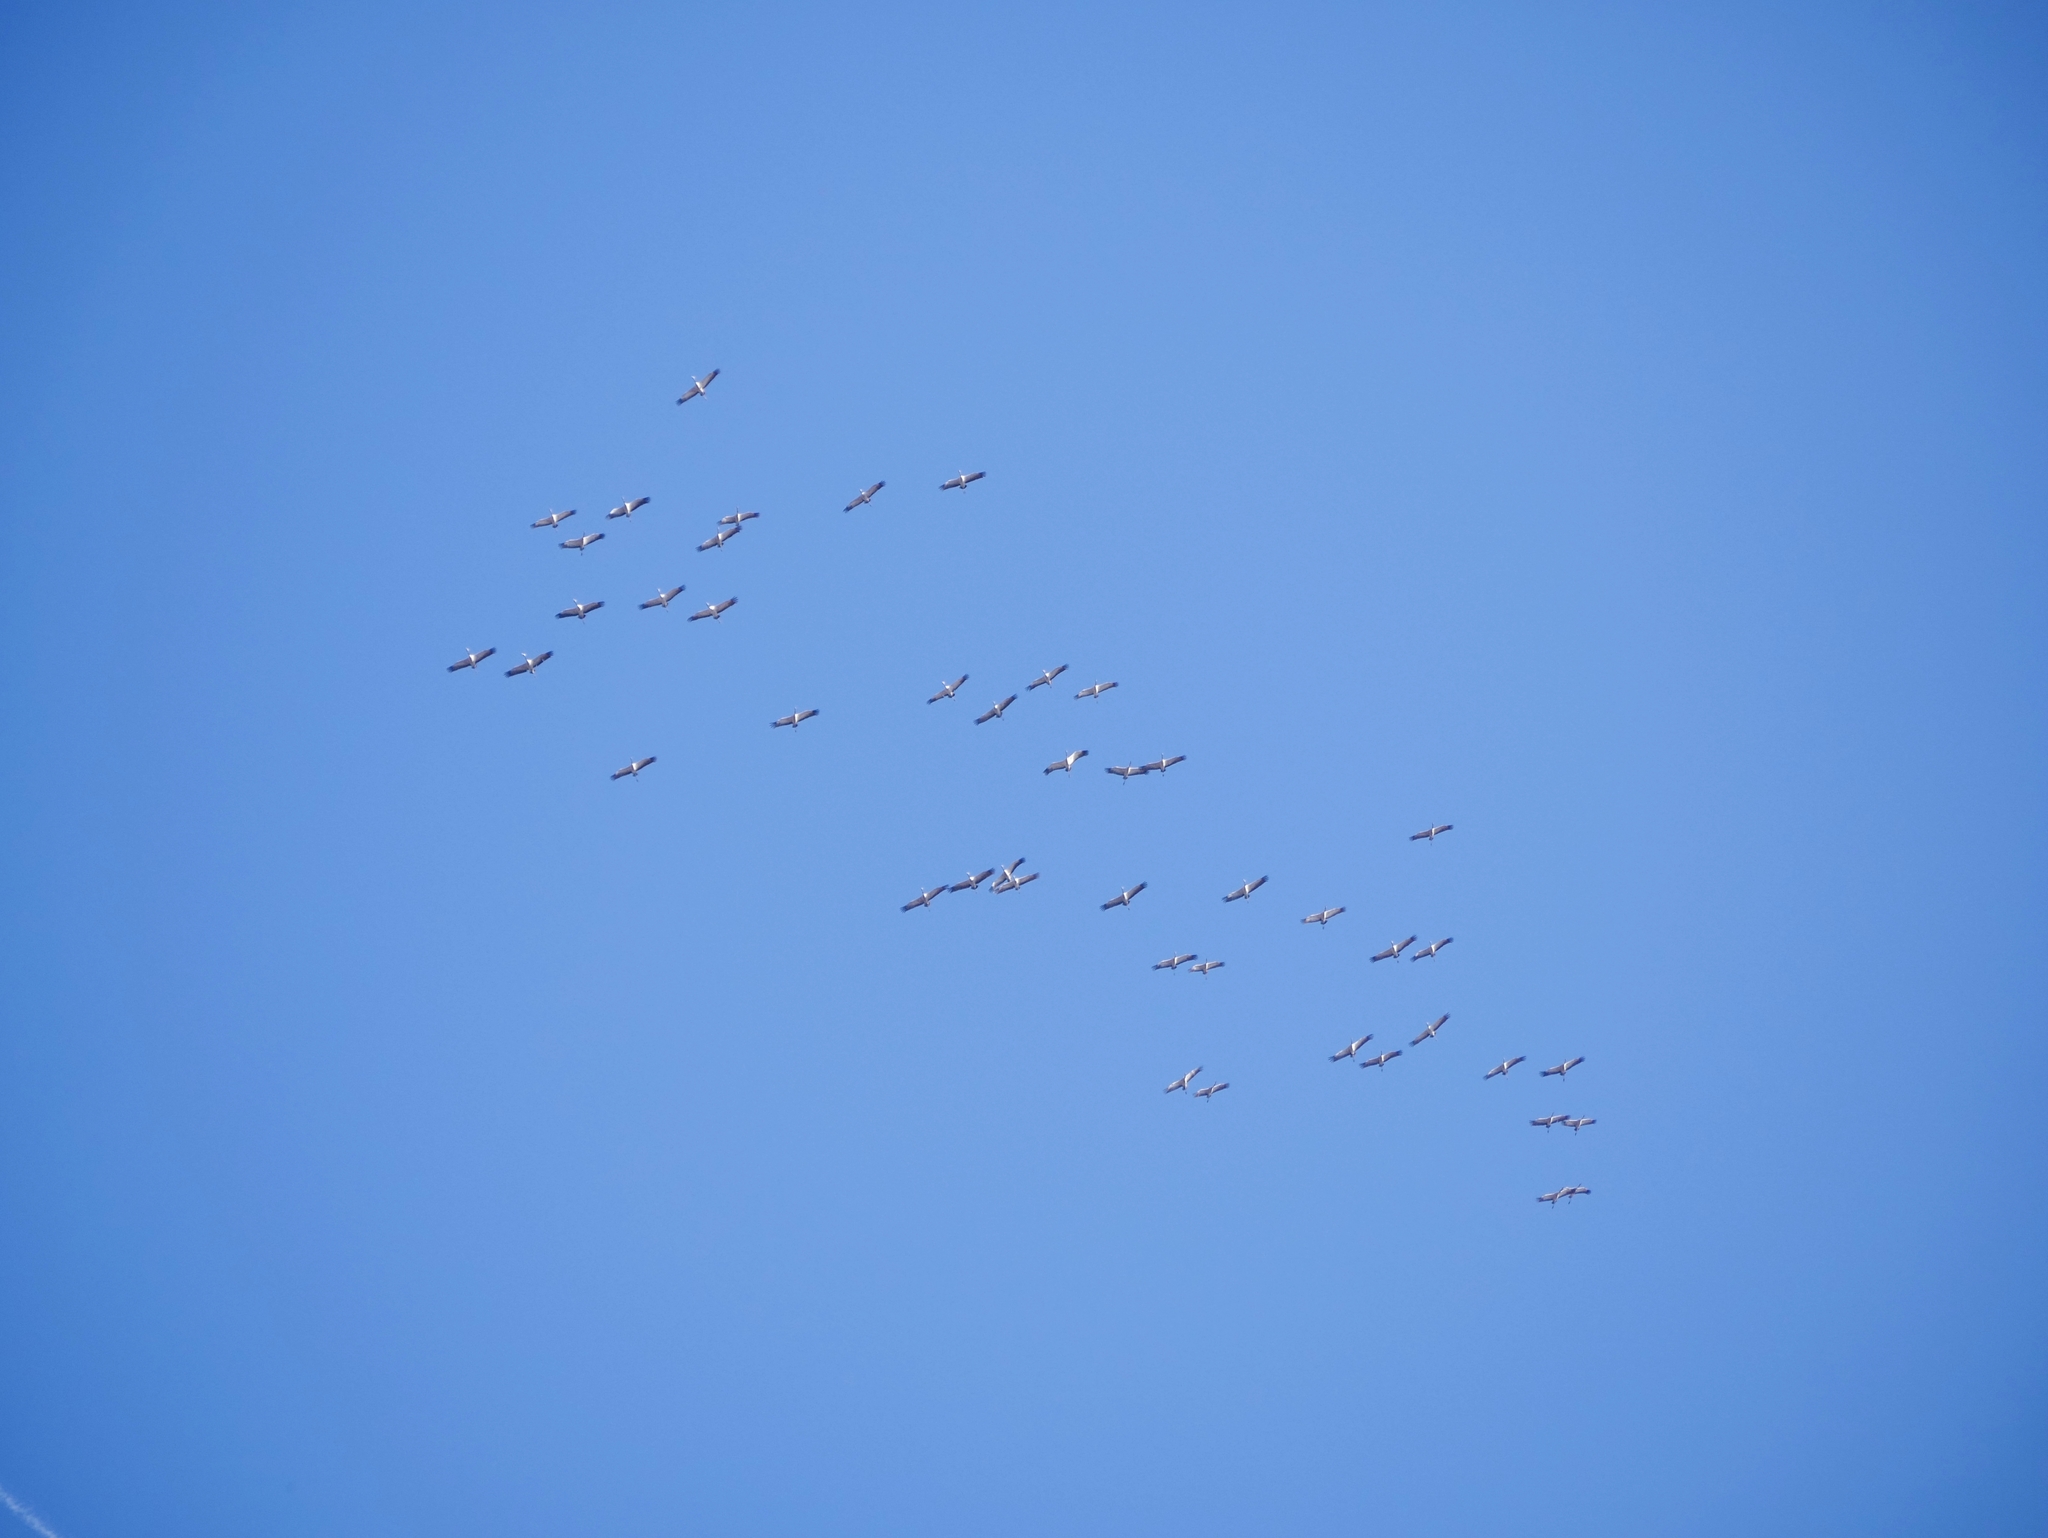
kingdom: Animalia
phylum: Chordata
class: Aves
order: Gruiformes
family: Gruidae
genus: Grus
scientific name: Grus grus
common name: Common crane
